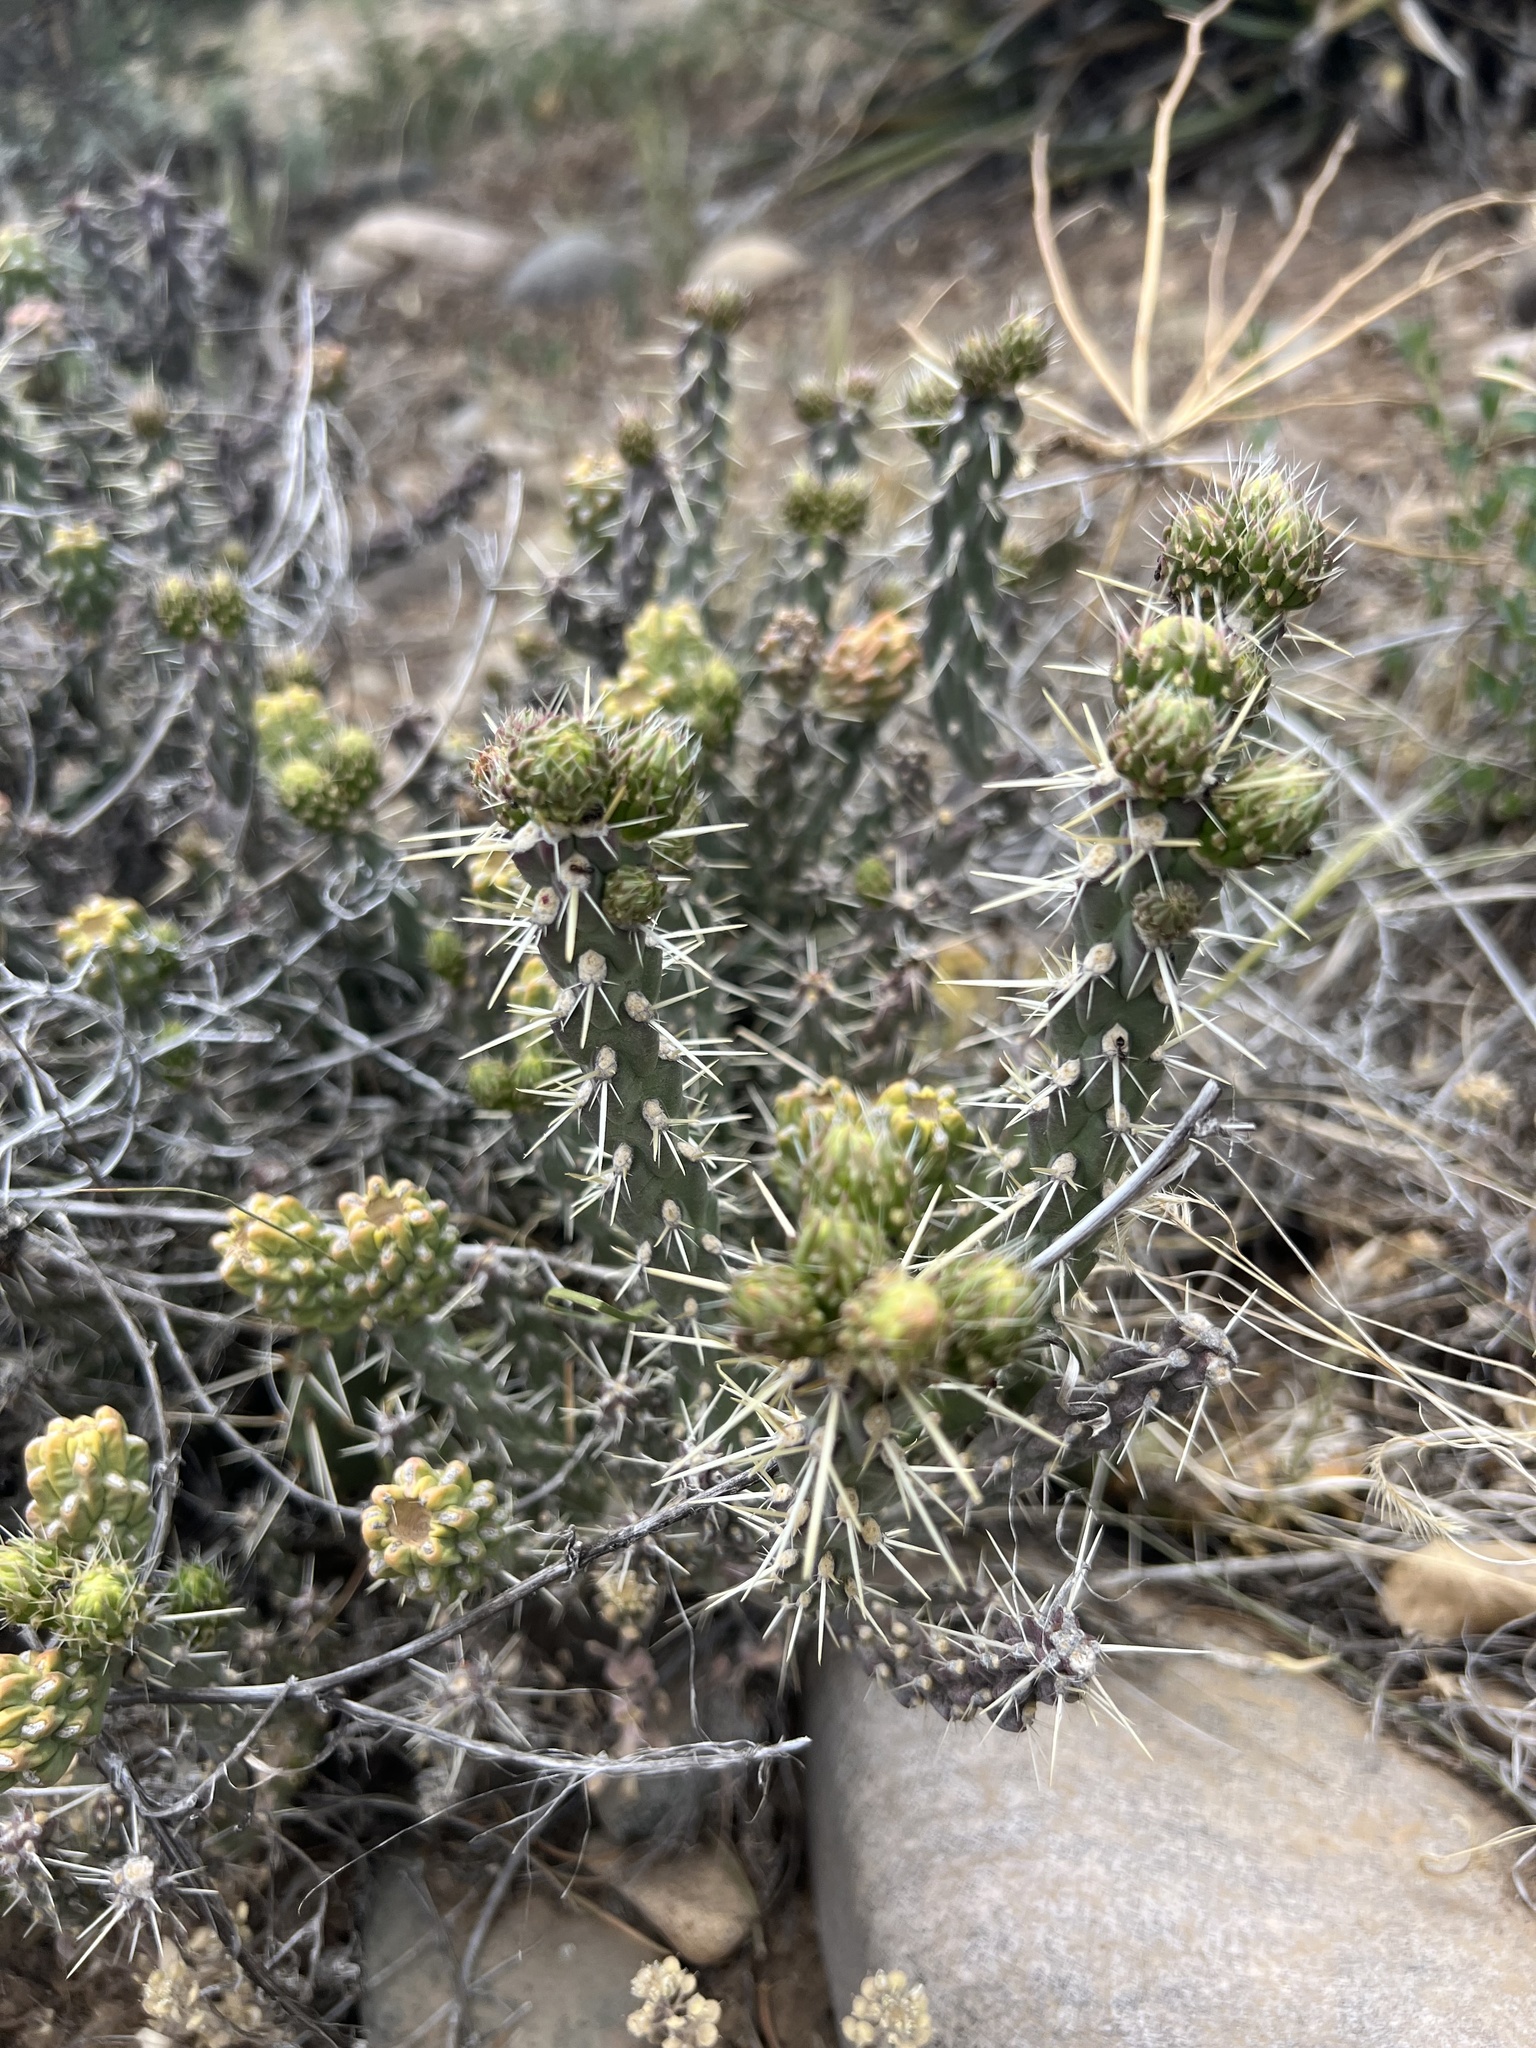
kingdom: Plantae
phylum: Tracheophyta
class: Magnoliopsida
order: Caryophyllales
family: Cactaceae
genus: Cylindropuntia
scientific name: Cylindropuntia whipplei
